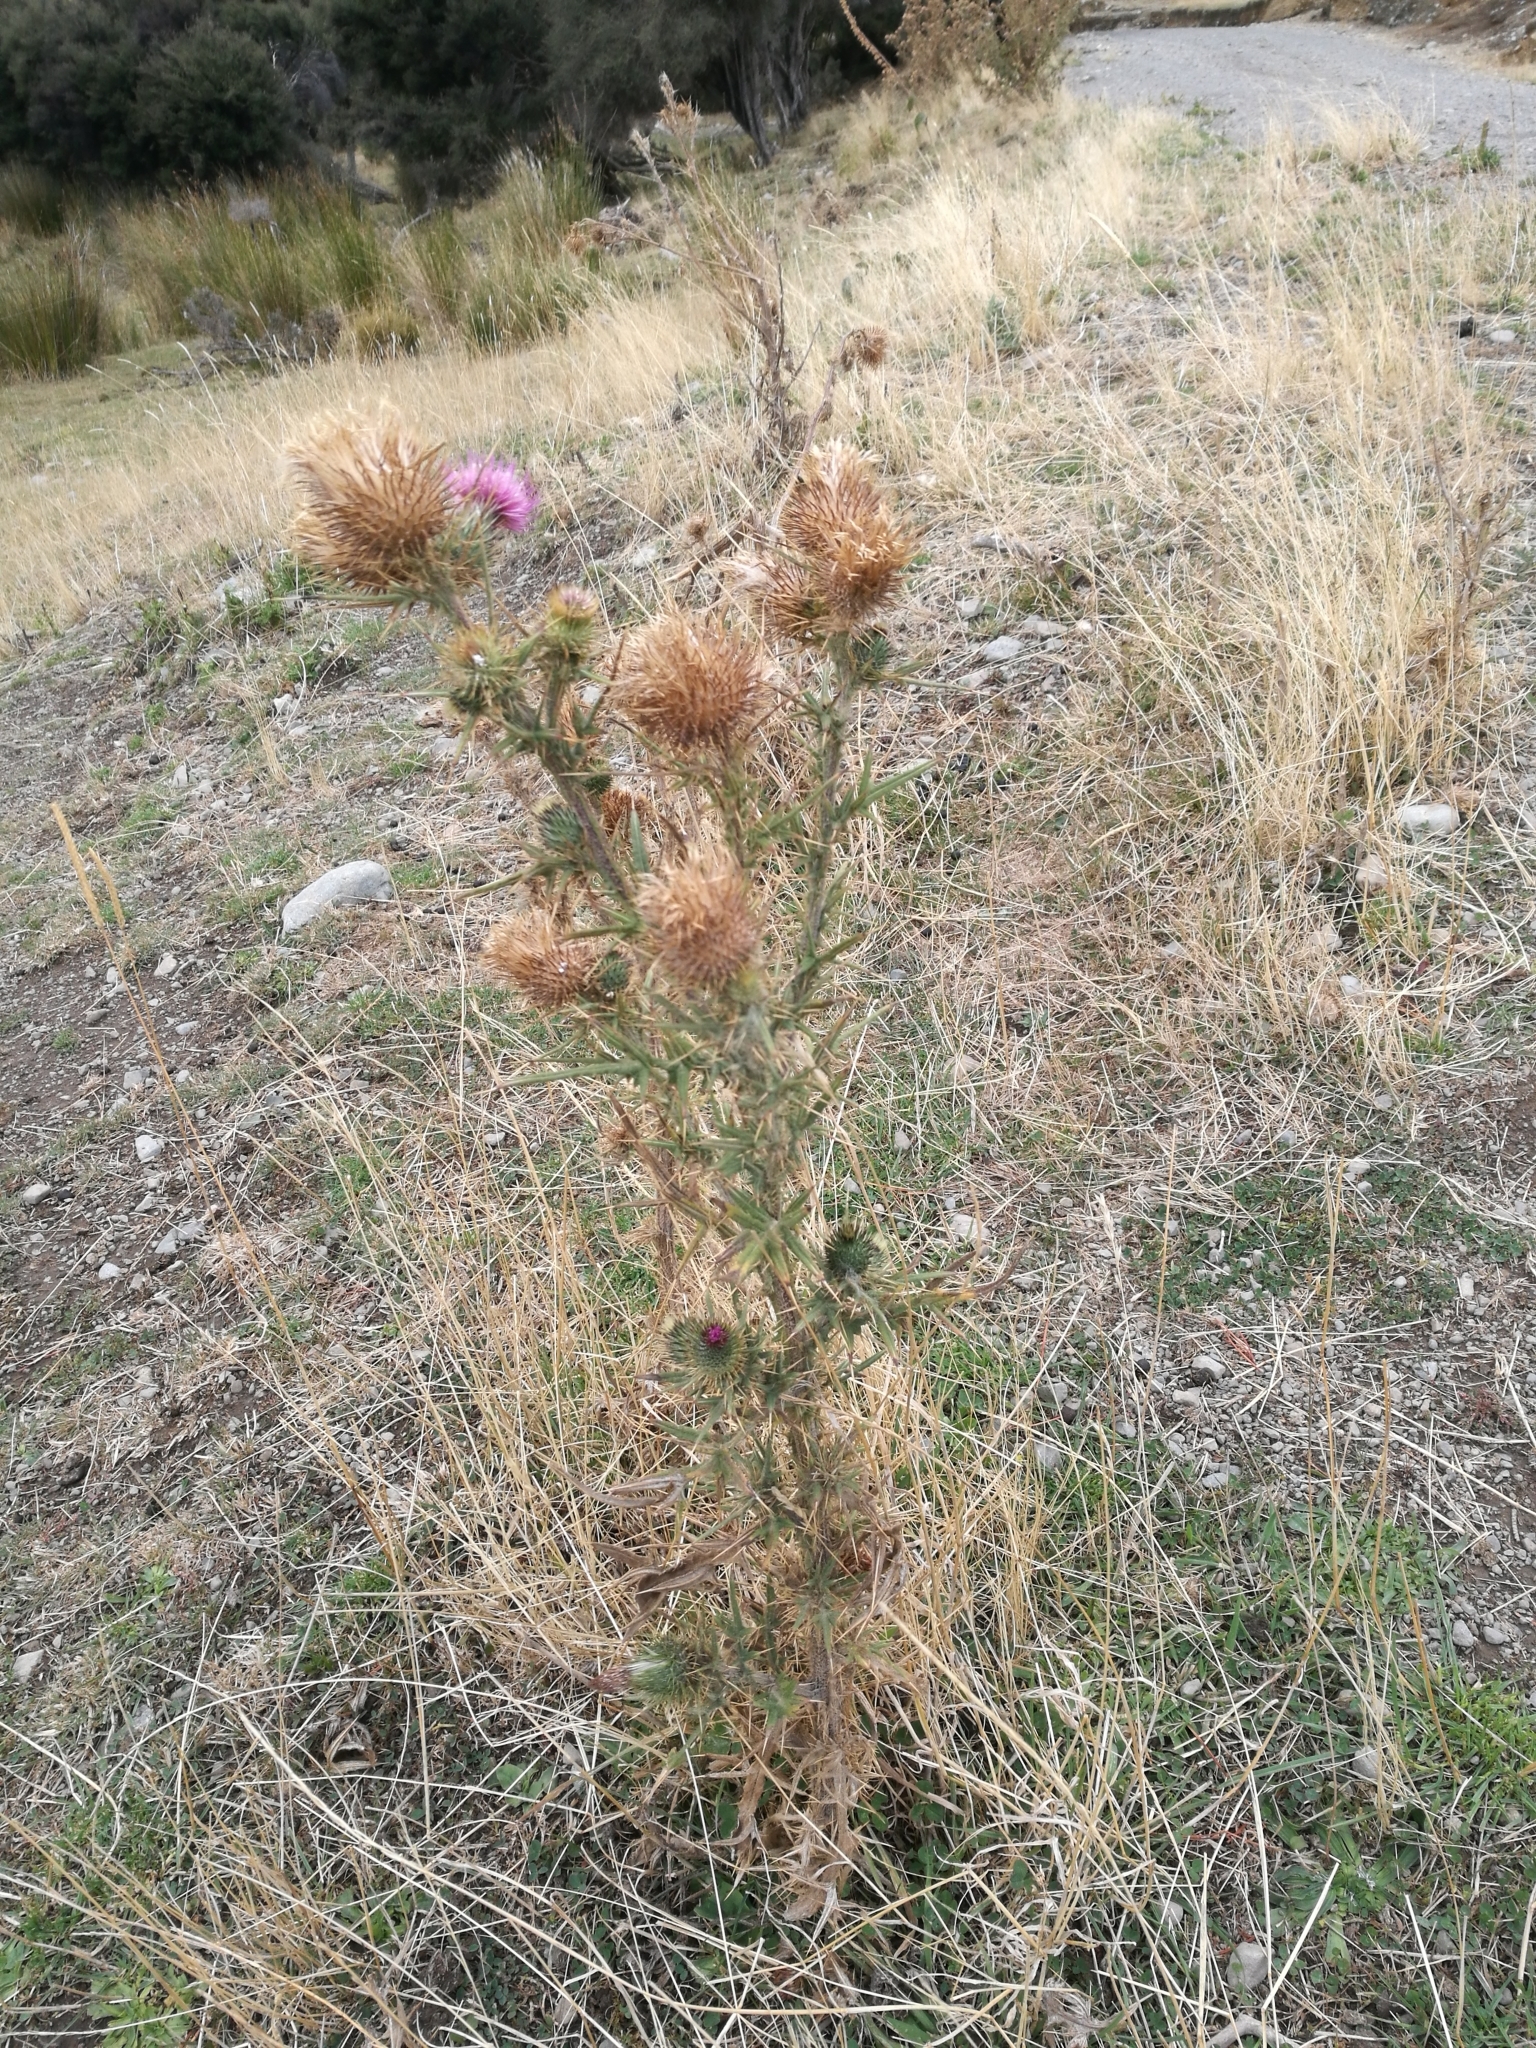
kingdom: Plantae
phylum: Tracheophyta
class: Magnoliopsida
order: Asterales
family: Asteraceae
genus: Cirsium
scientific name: Cirsium vulgare
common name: Bull thistle
